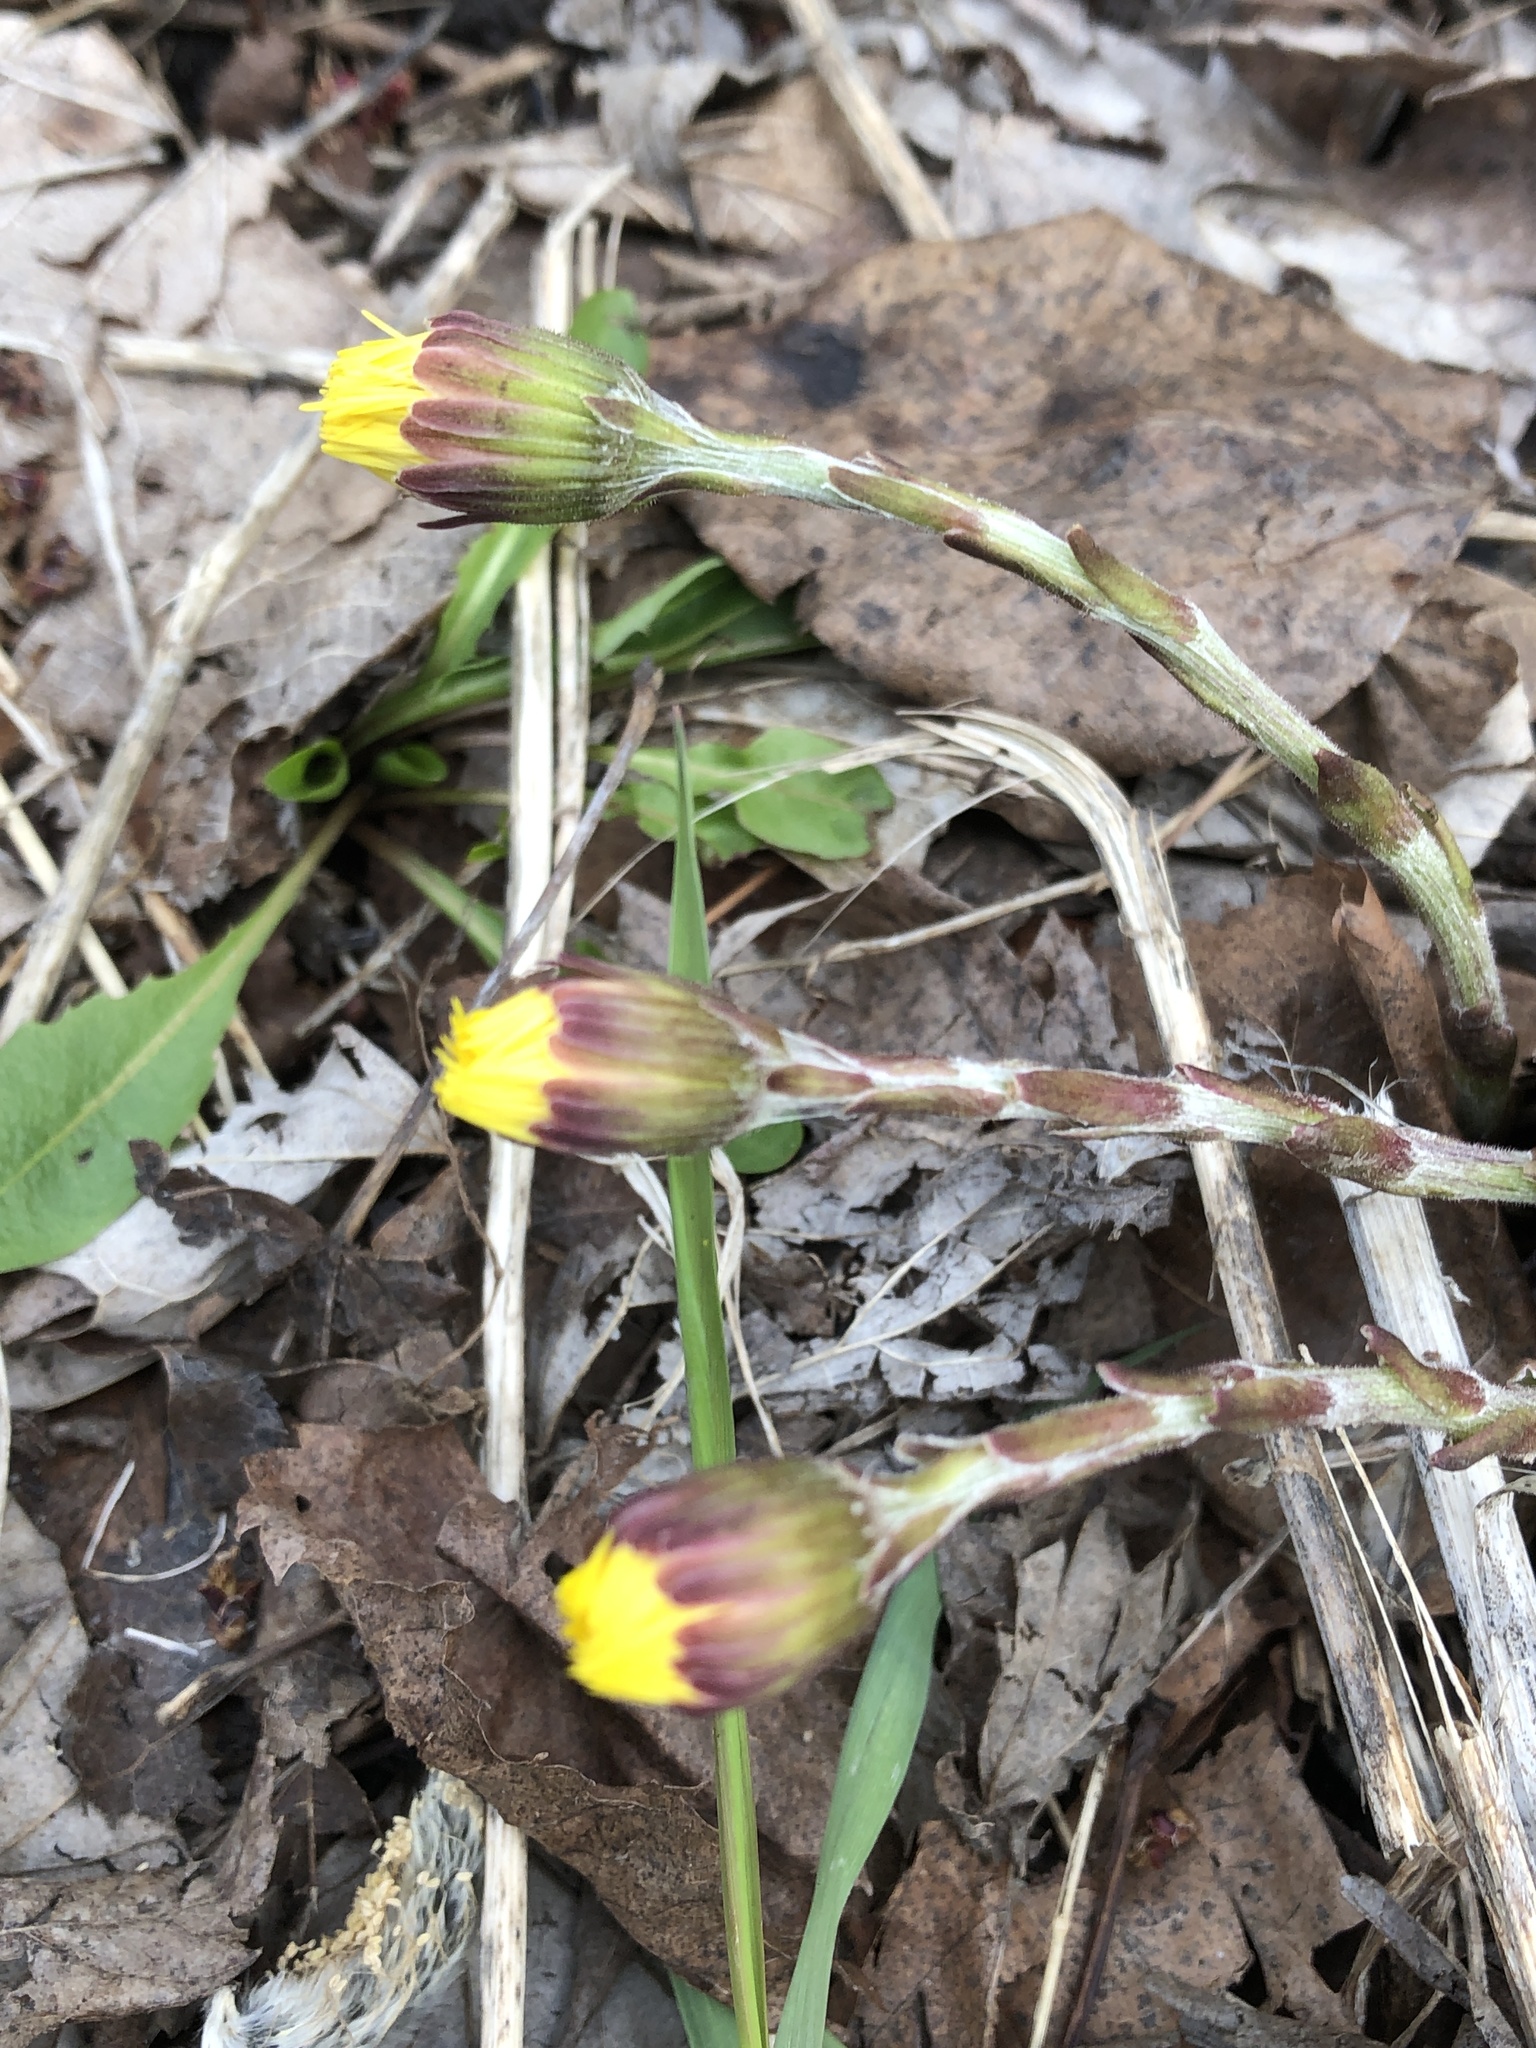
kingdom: Plantae
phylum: Tracheophyta
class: Magnoliopsida
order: Asterales
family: Asteraceae
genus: Tussilago
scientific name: Tussilago farfara
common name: Coltsfoot
